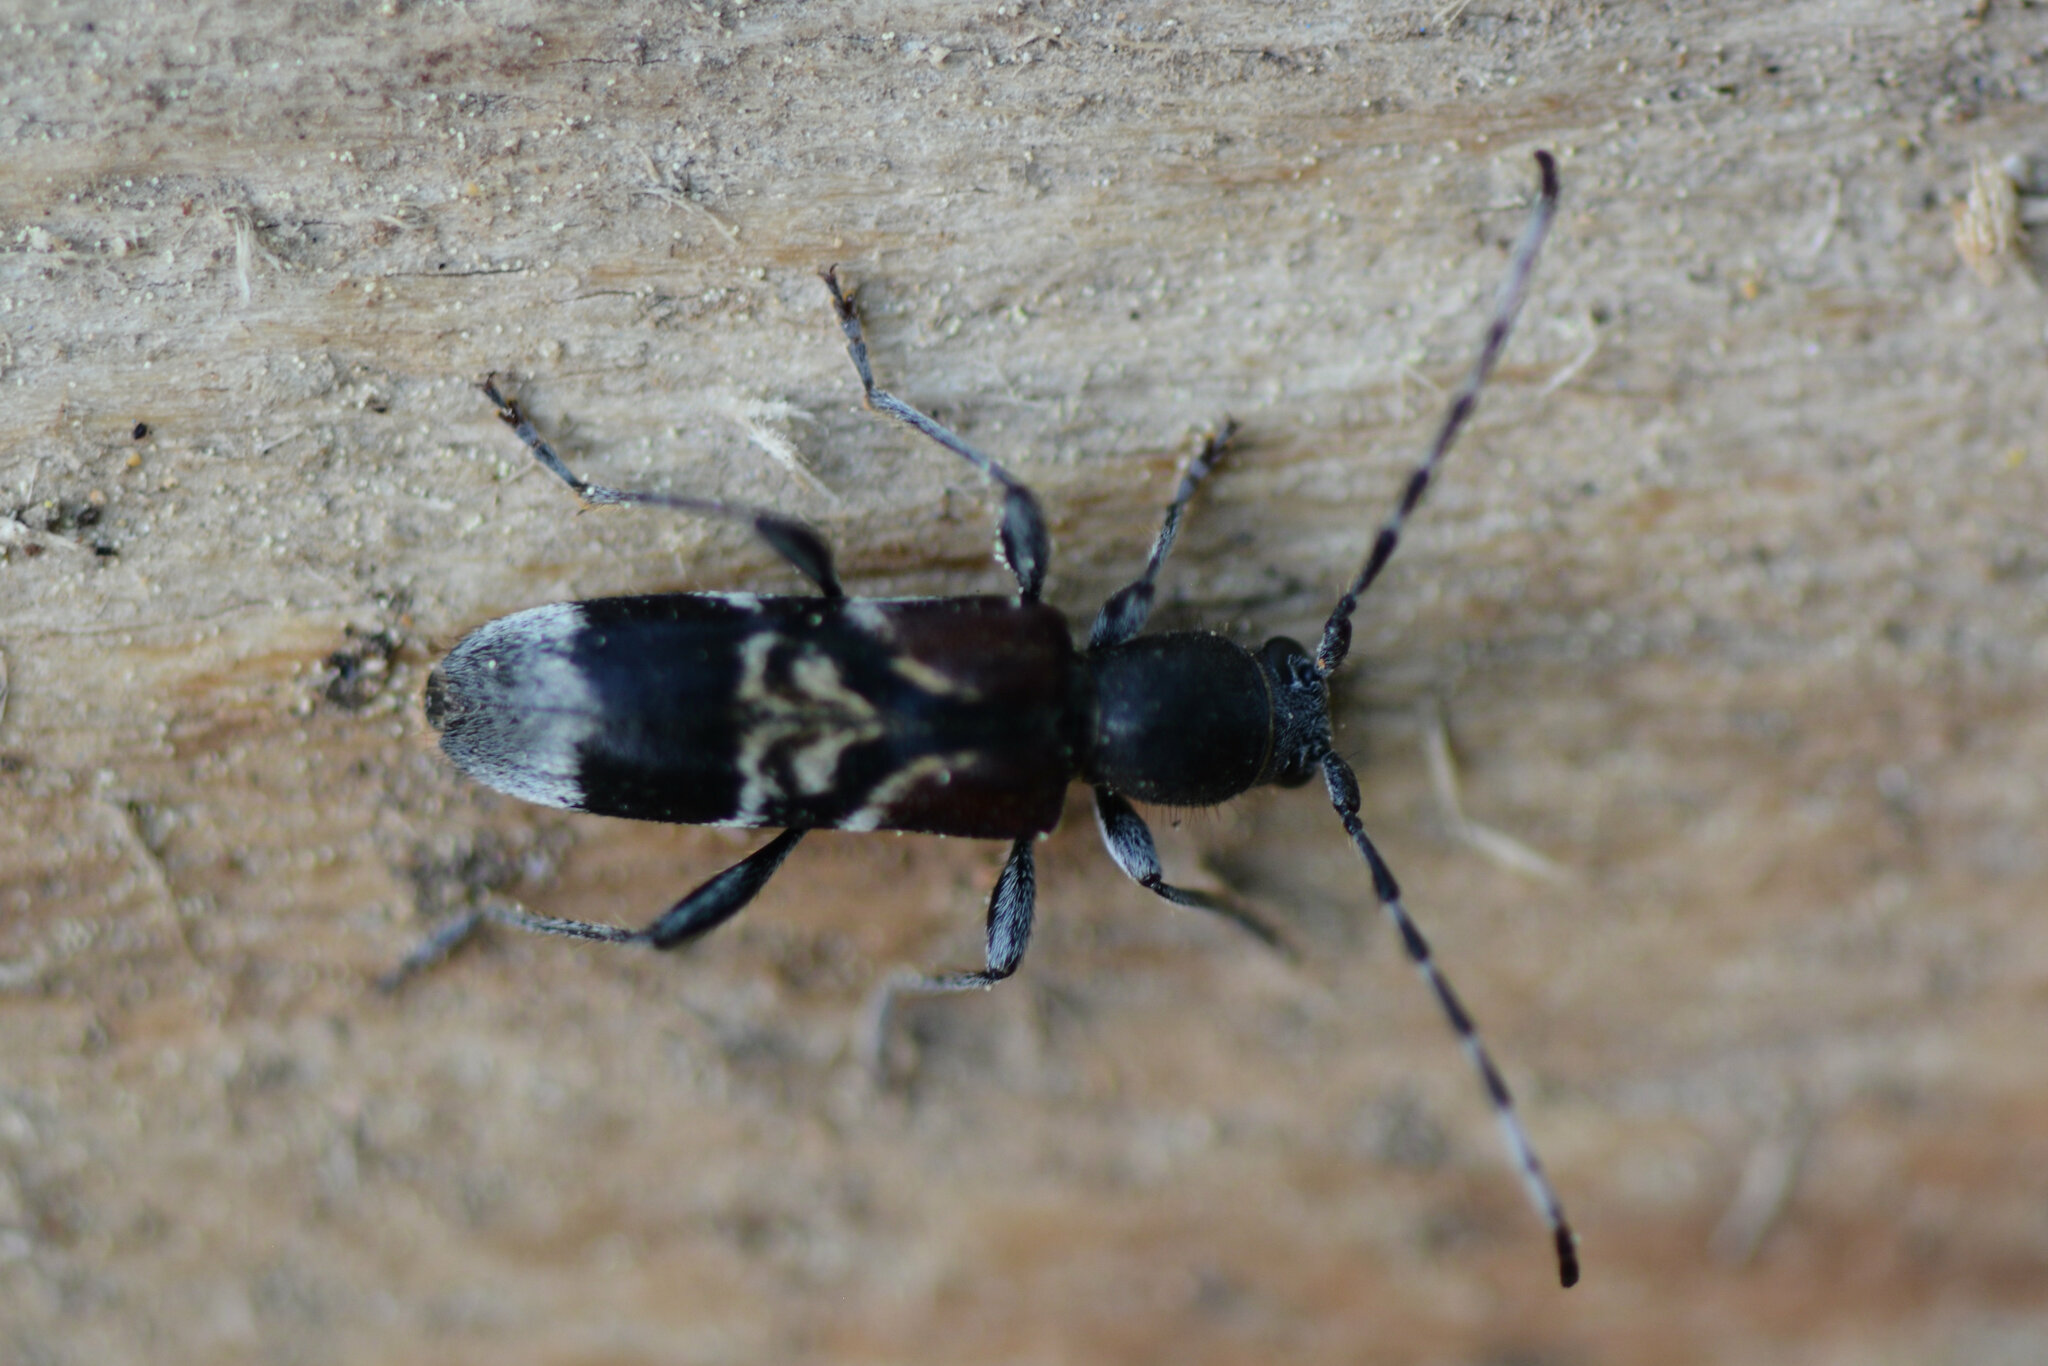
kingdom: Animalia
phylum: Arthropoda
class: Insecta
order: Coleoptera
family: Cerambycidae
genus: Anaglyptus
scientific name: Anaglyptus mysticus
